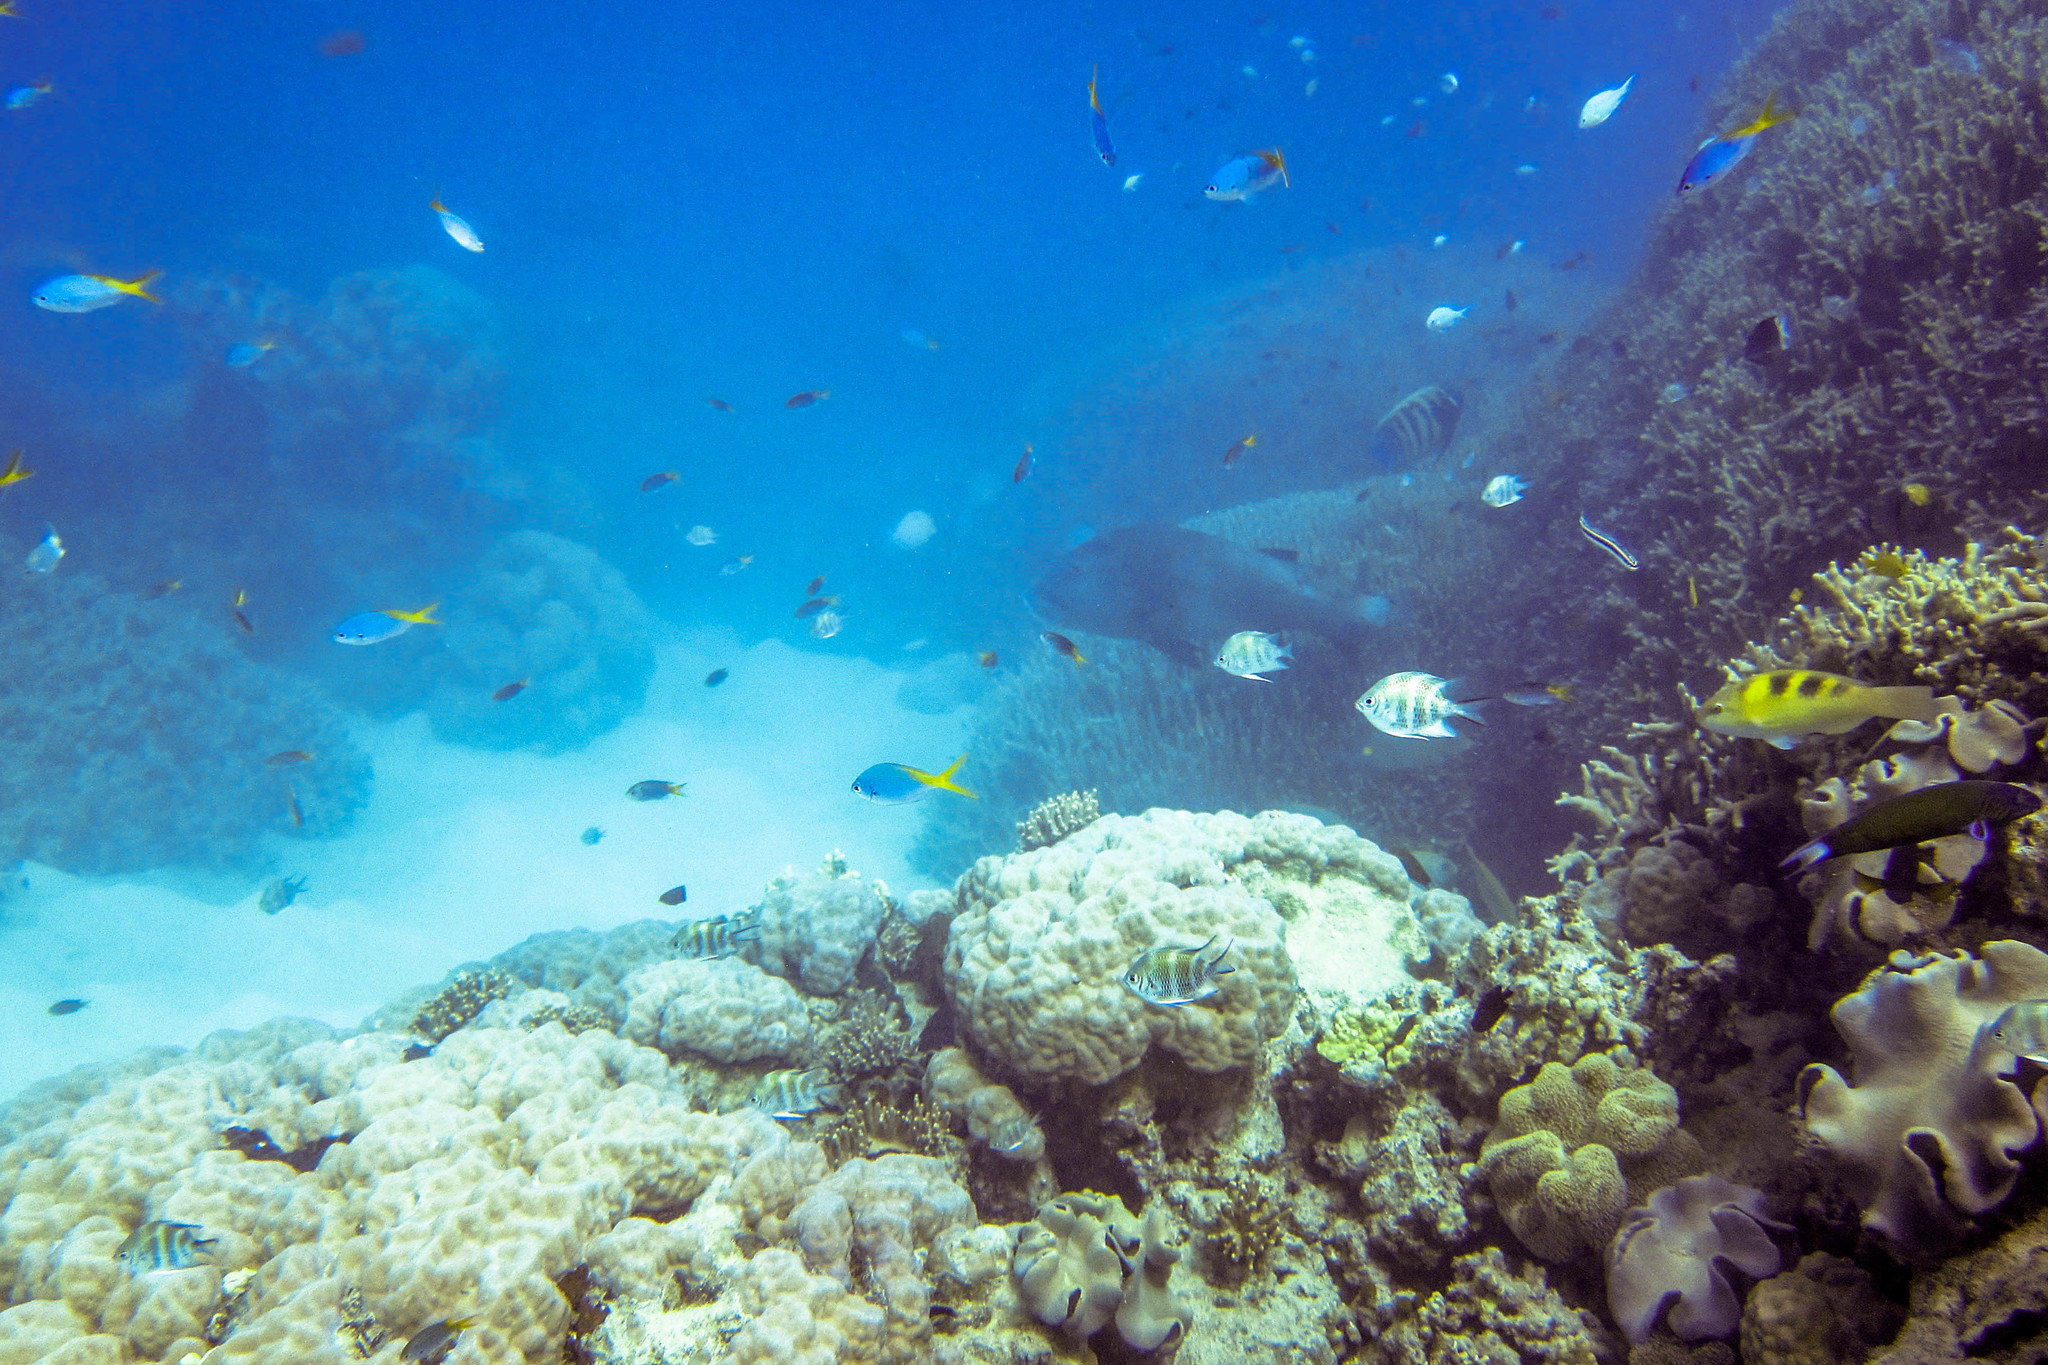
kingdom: Animalia
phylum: Chordata
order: Perciformes
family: Scaridae
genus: Scarus
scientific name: Scarus dimidiatus
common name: Yellowbarred parrotfish
